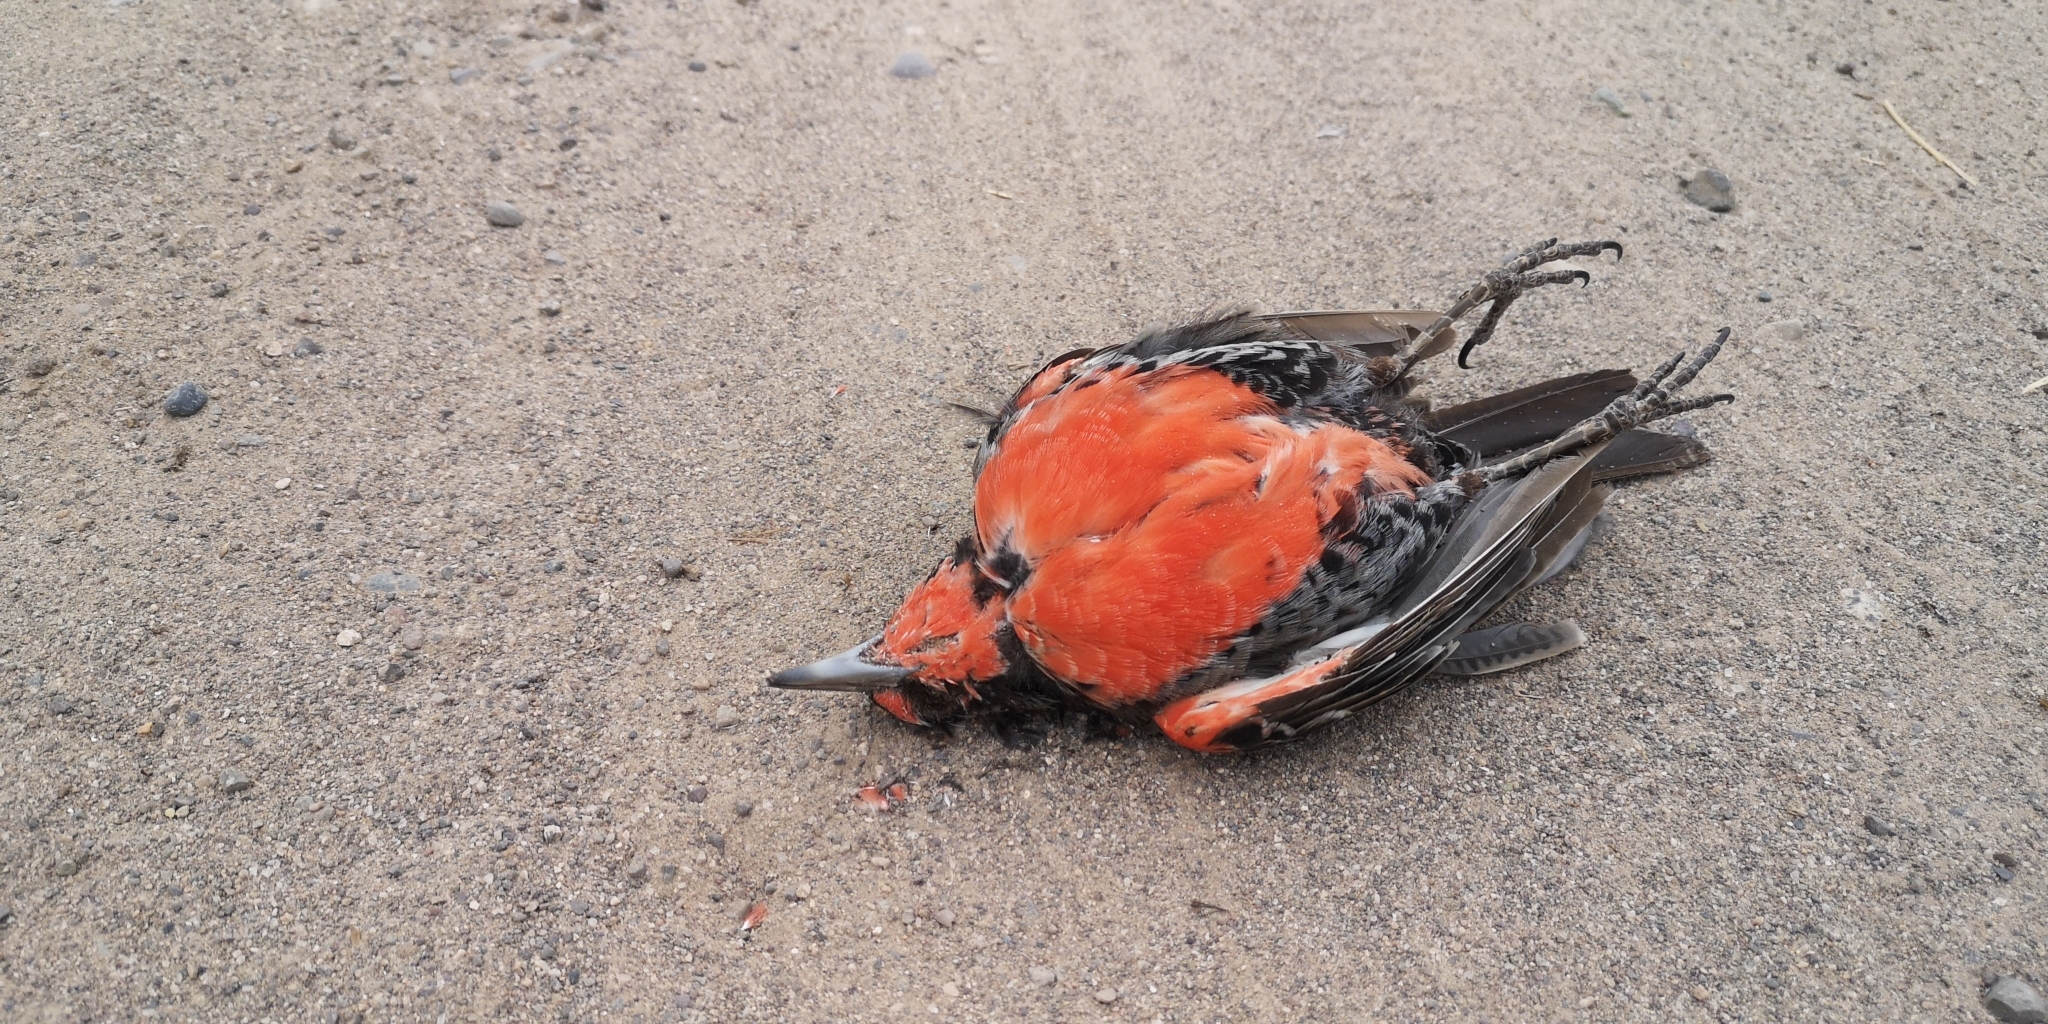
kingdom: Animalia
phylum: Chordata
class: Aves
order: Passeriformes
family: Icteridae
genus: Sturnella
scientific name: Sturnella loyca
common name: Long-tailed meadowlark
